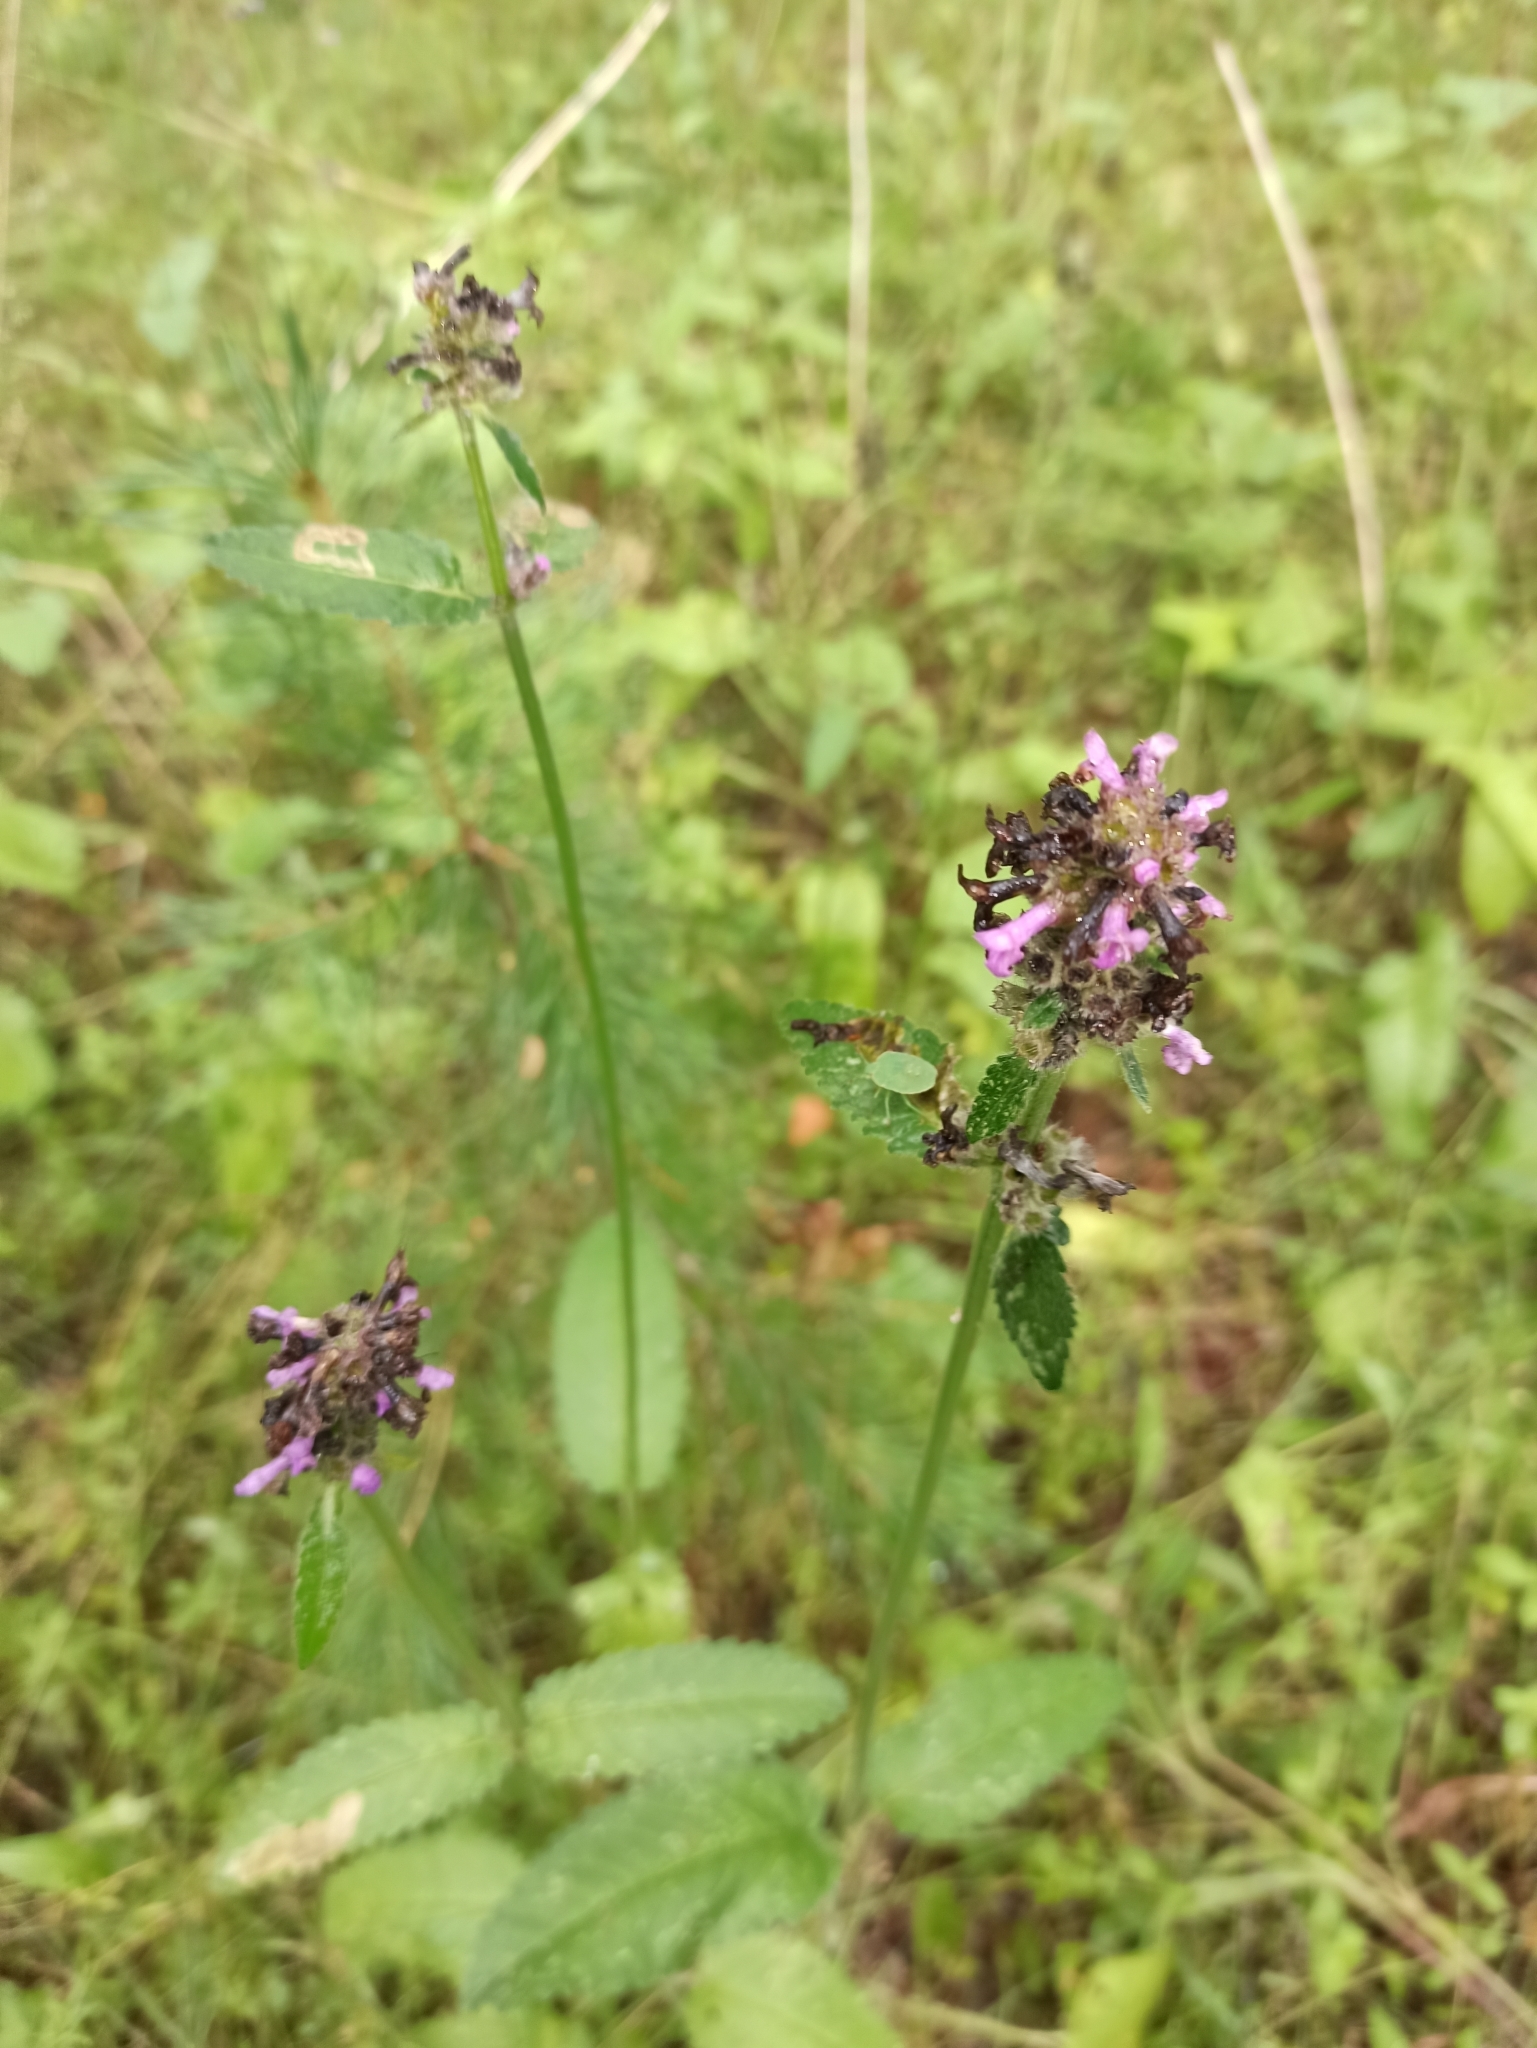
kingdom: Plantae
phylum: Tracheophyta
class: Magnoliopsida
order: Lamiales
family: Lamiaceae
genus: Betonica
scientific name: Betonica officinalis
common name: Bishop's-wort
